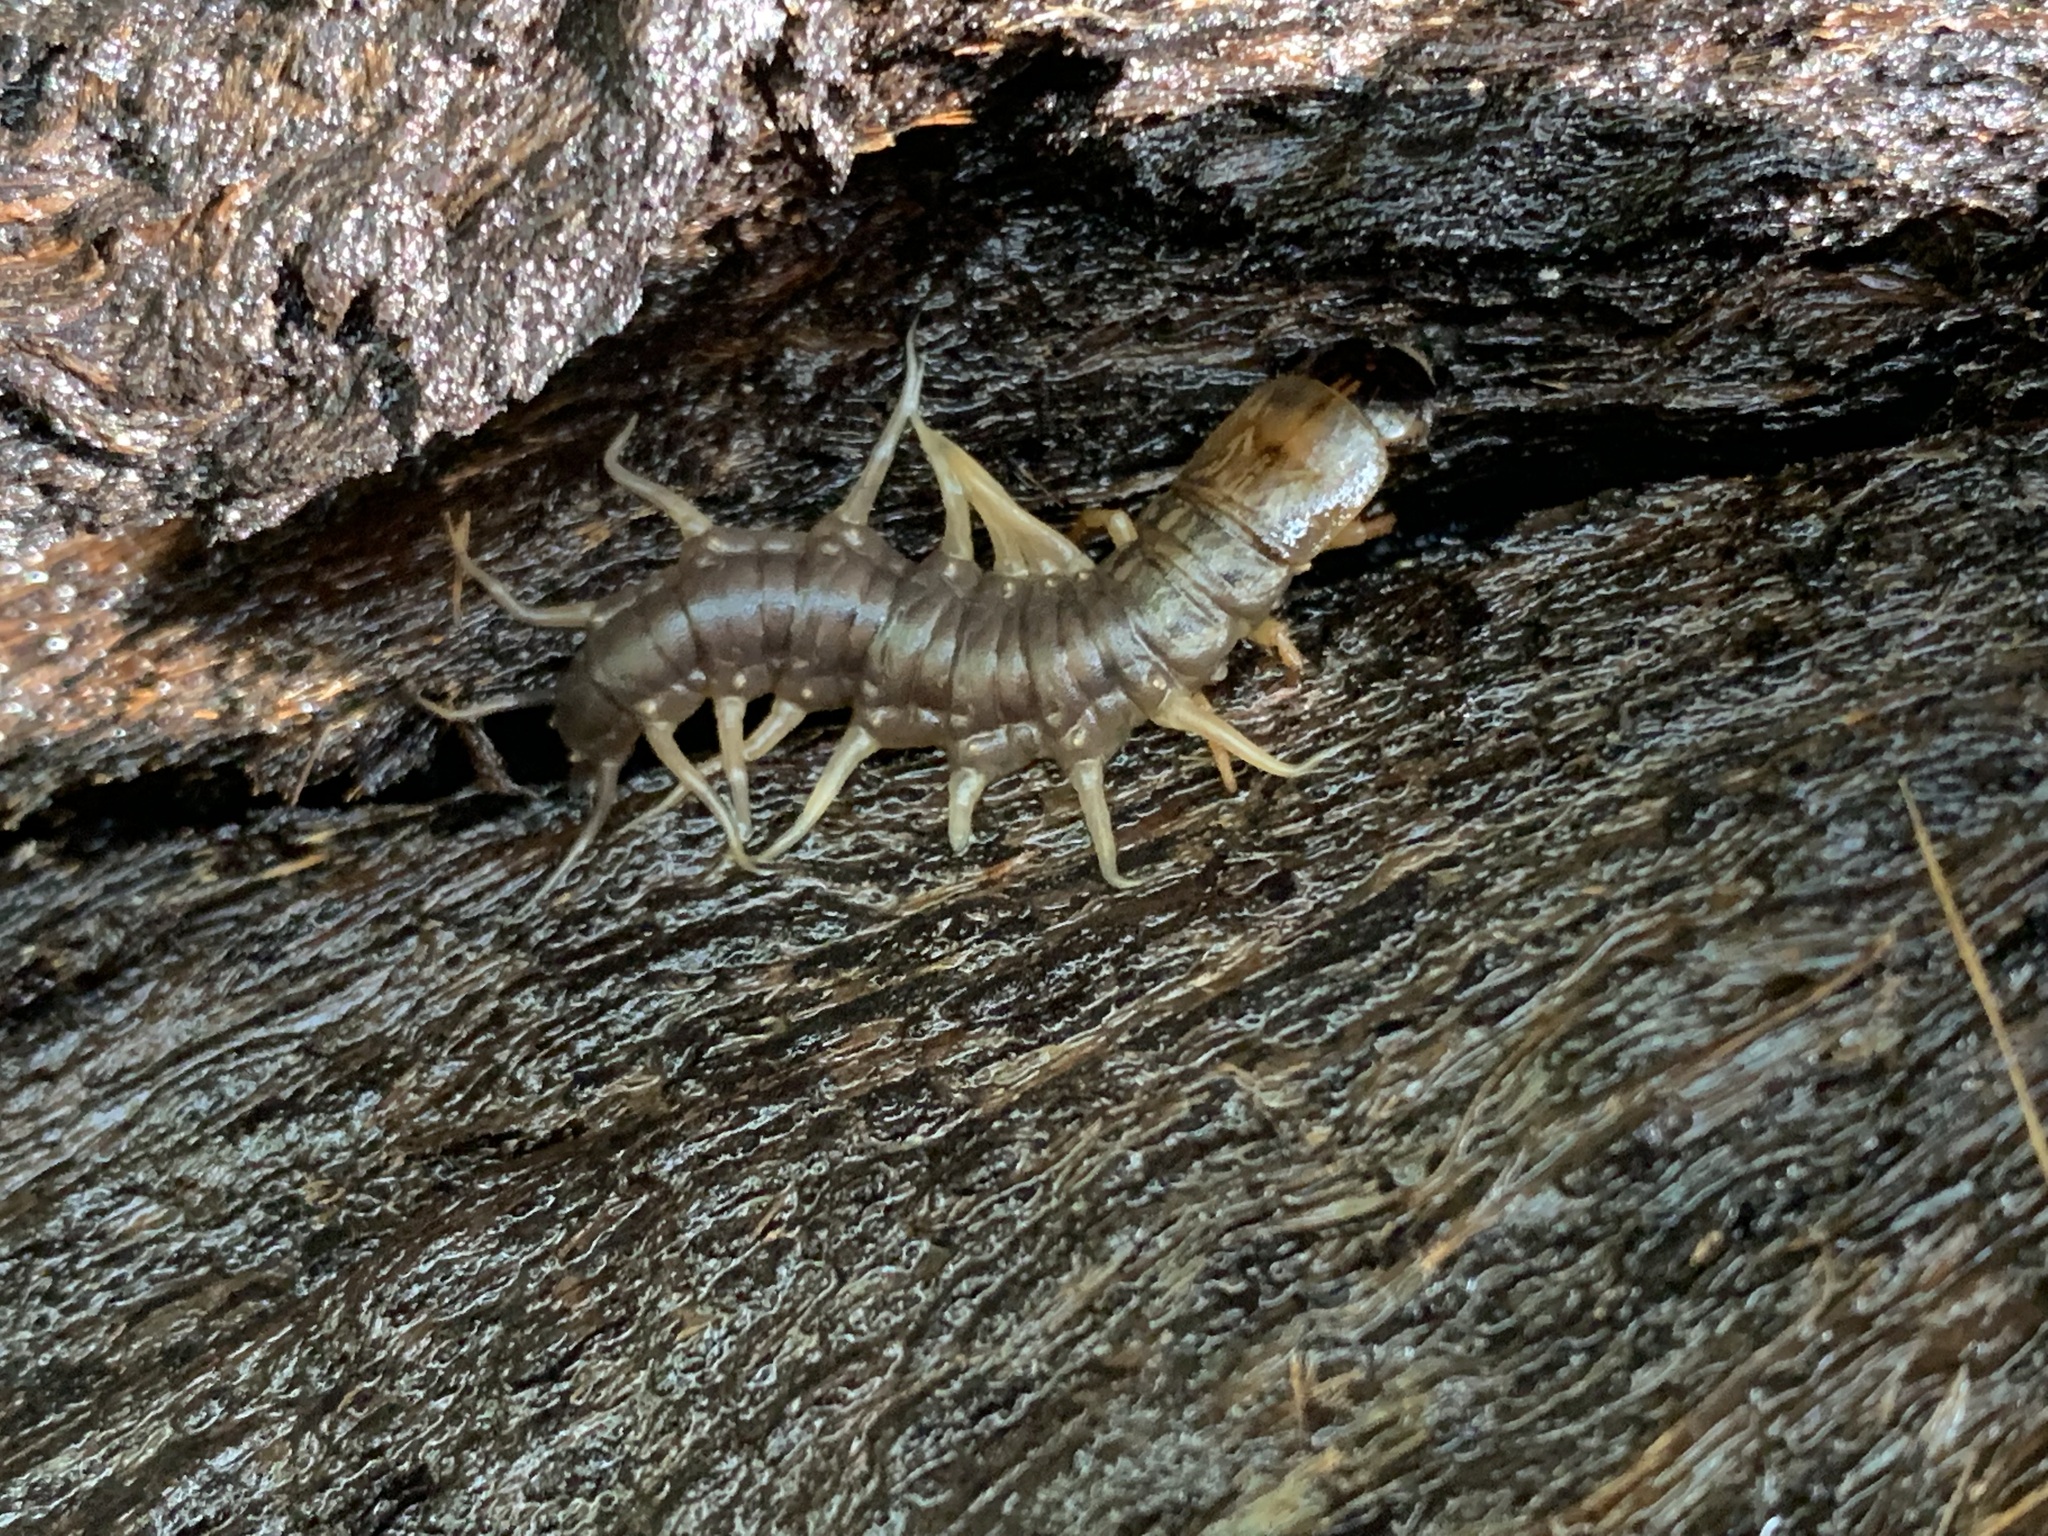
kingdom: Animalia
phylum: Arthropoda
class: Insecta
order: Megaloptera
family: Corydalidae
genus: Neohermes
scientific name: Neohermes filicornis
